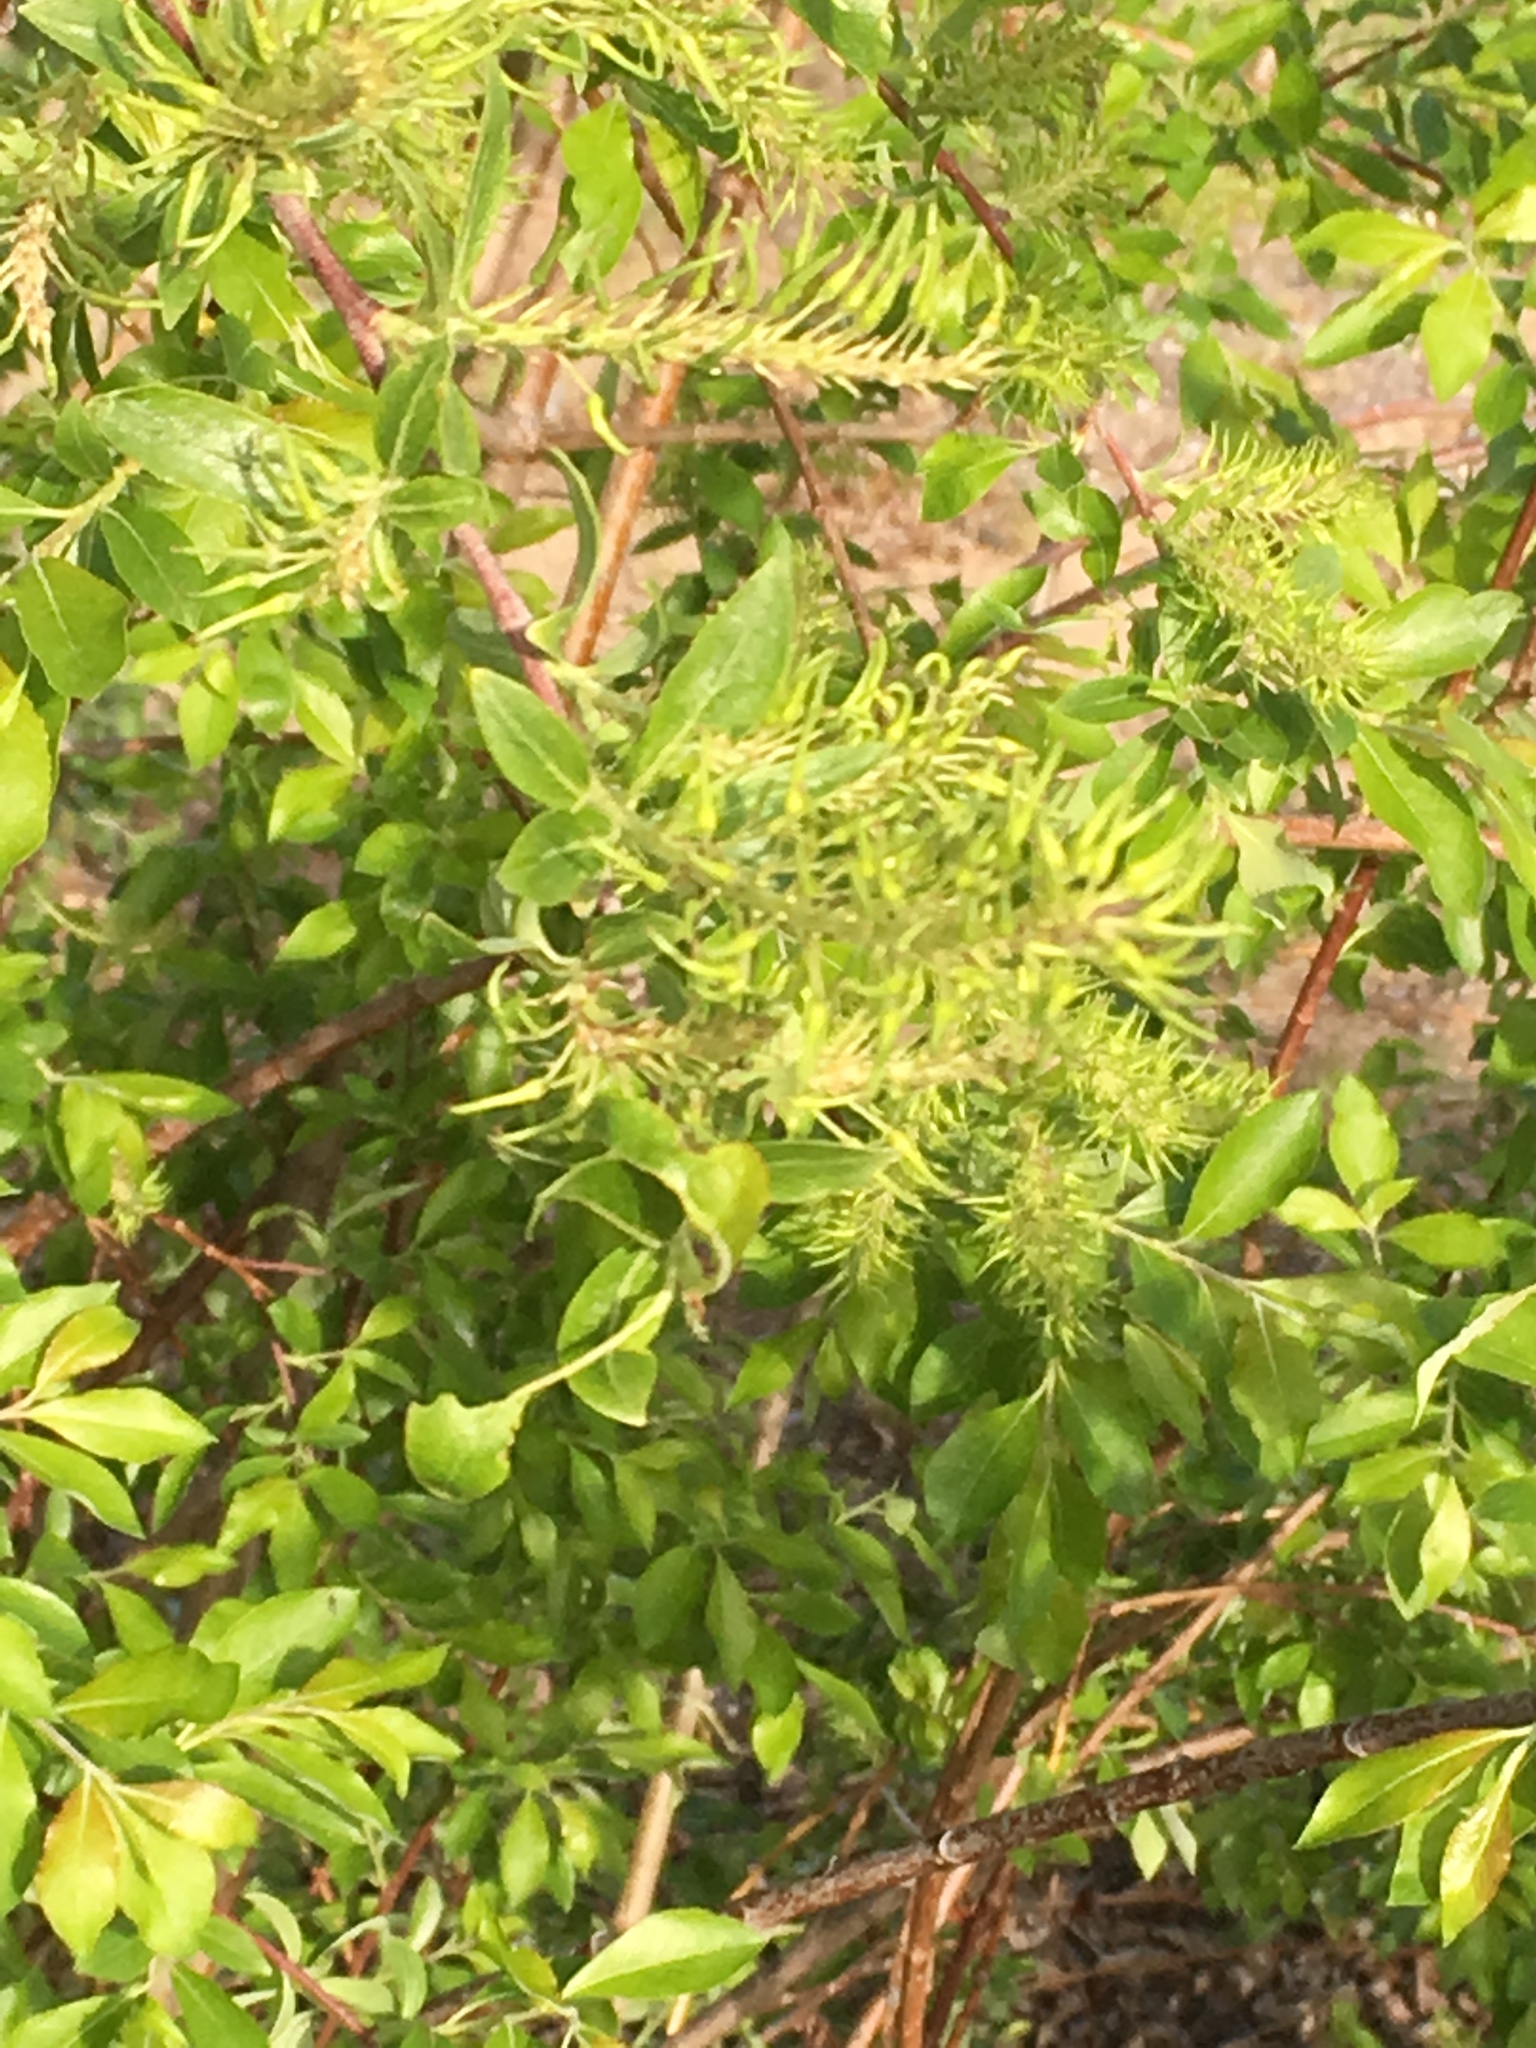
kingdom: Plantae
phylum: Tracheophyta
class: Magnoliopsida
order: Malpighiales
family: Salicaceae
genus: Salix
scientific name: Salix bebbiana
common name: Bebb's willow
